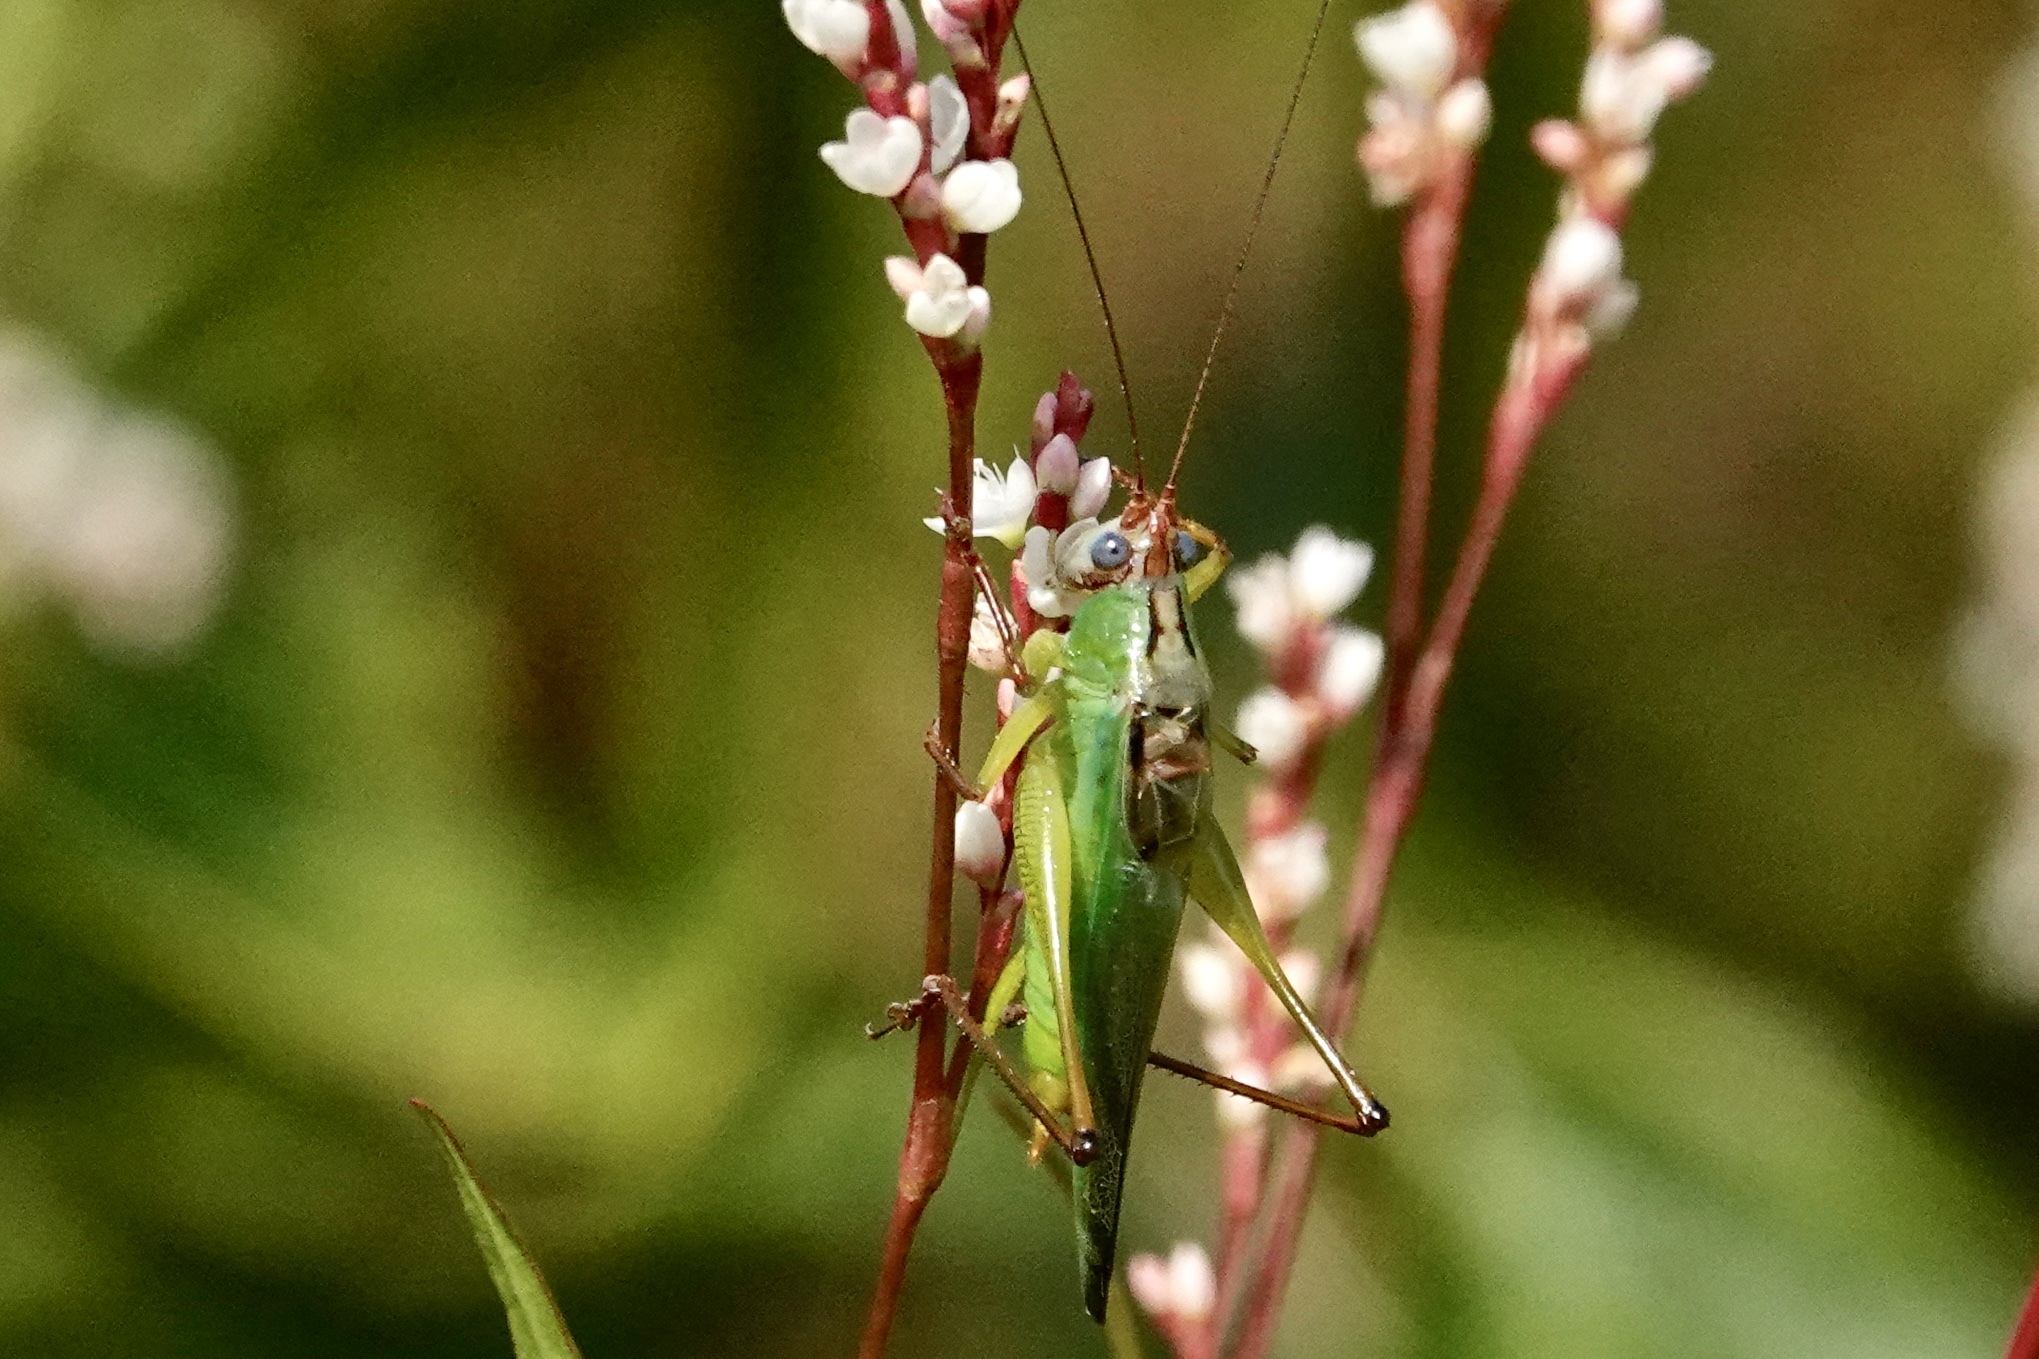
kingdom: Animalia
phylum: Arthropoda
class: Insecta
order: Orthoptera
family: Tettigoniidae
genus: Orchelimum
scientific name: Orchelimum pulchellum
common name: Handsome meadow katydid
